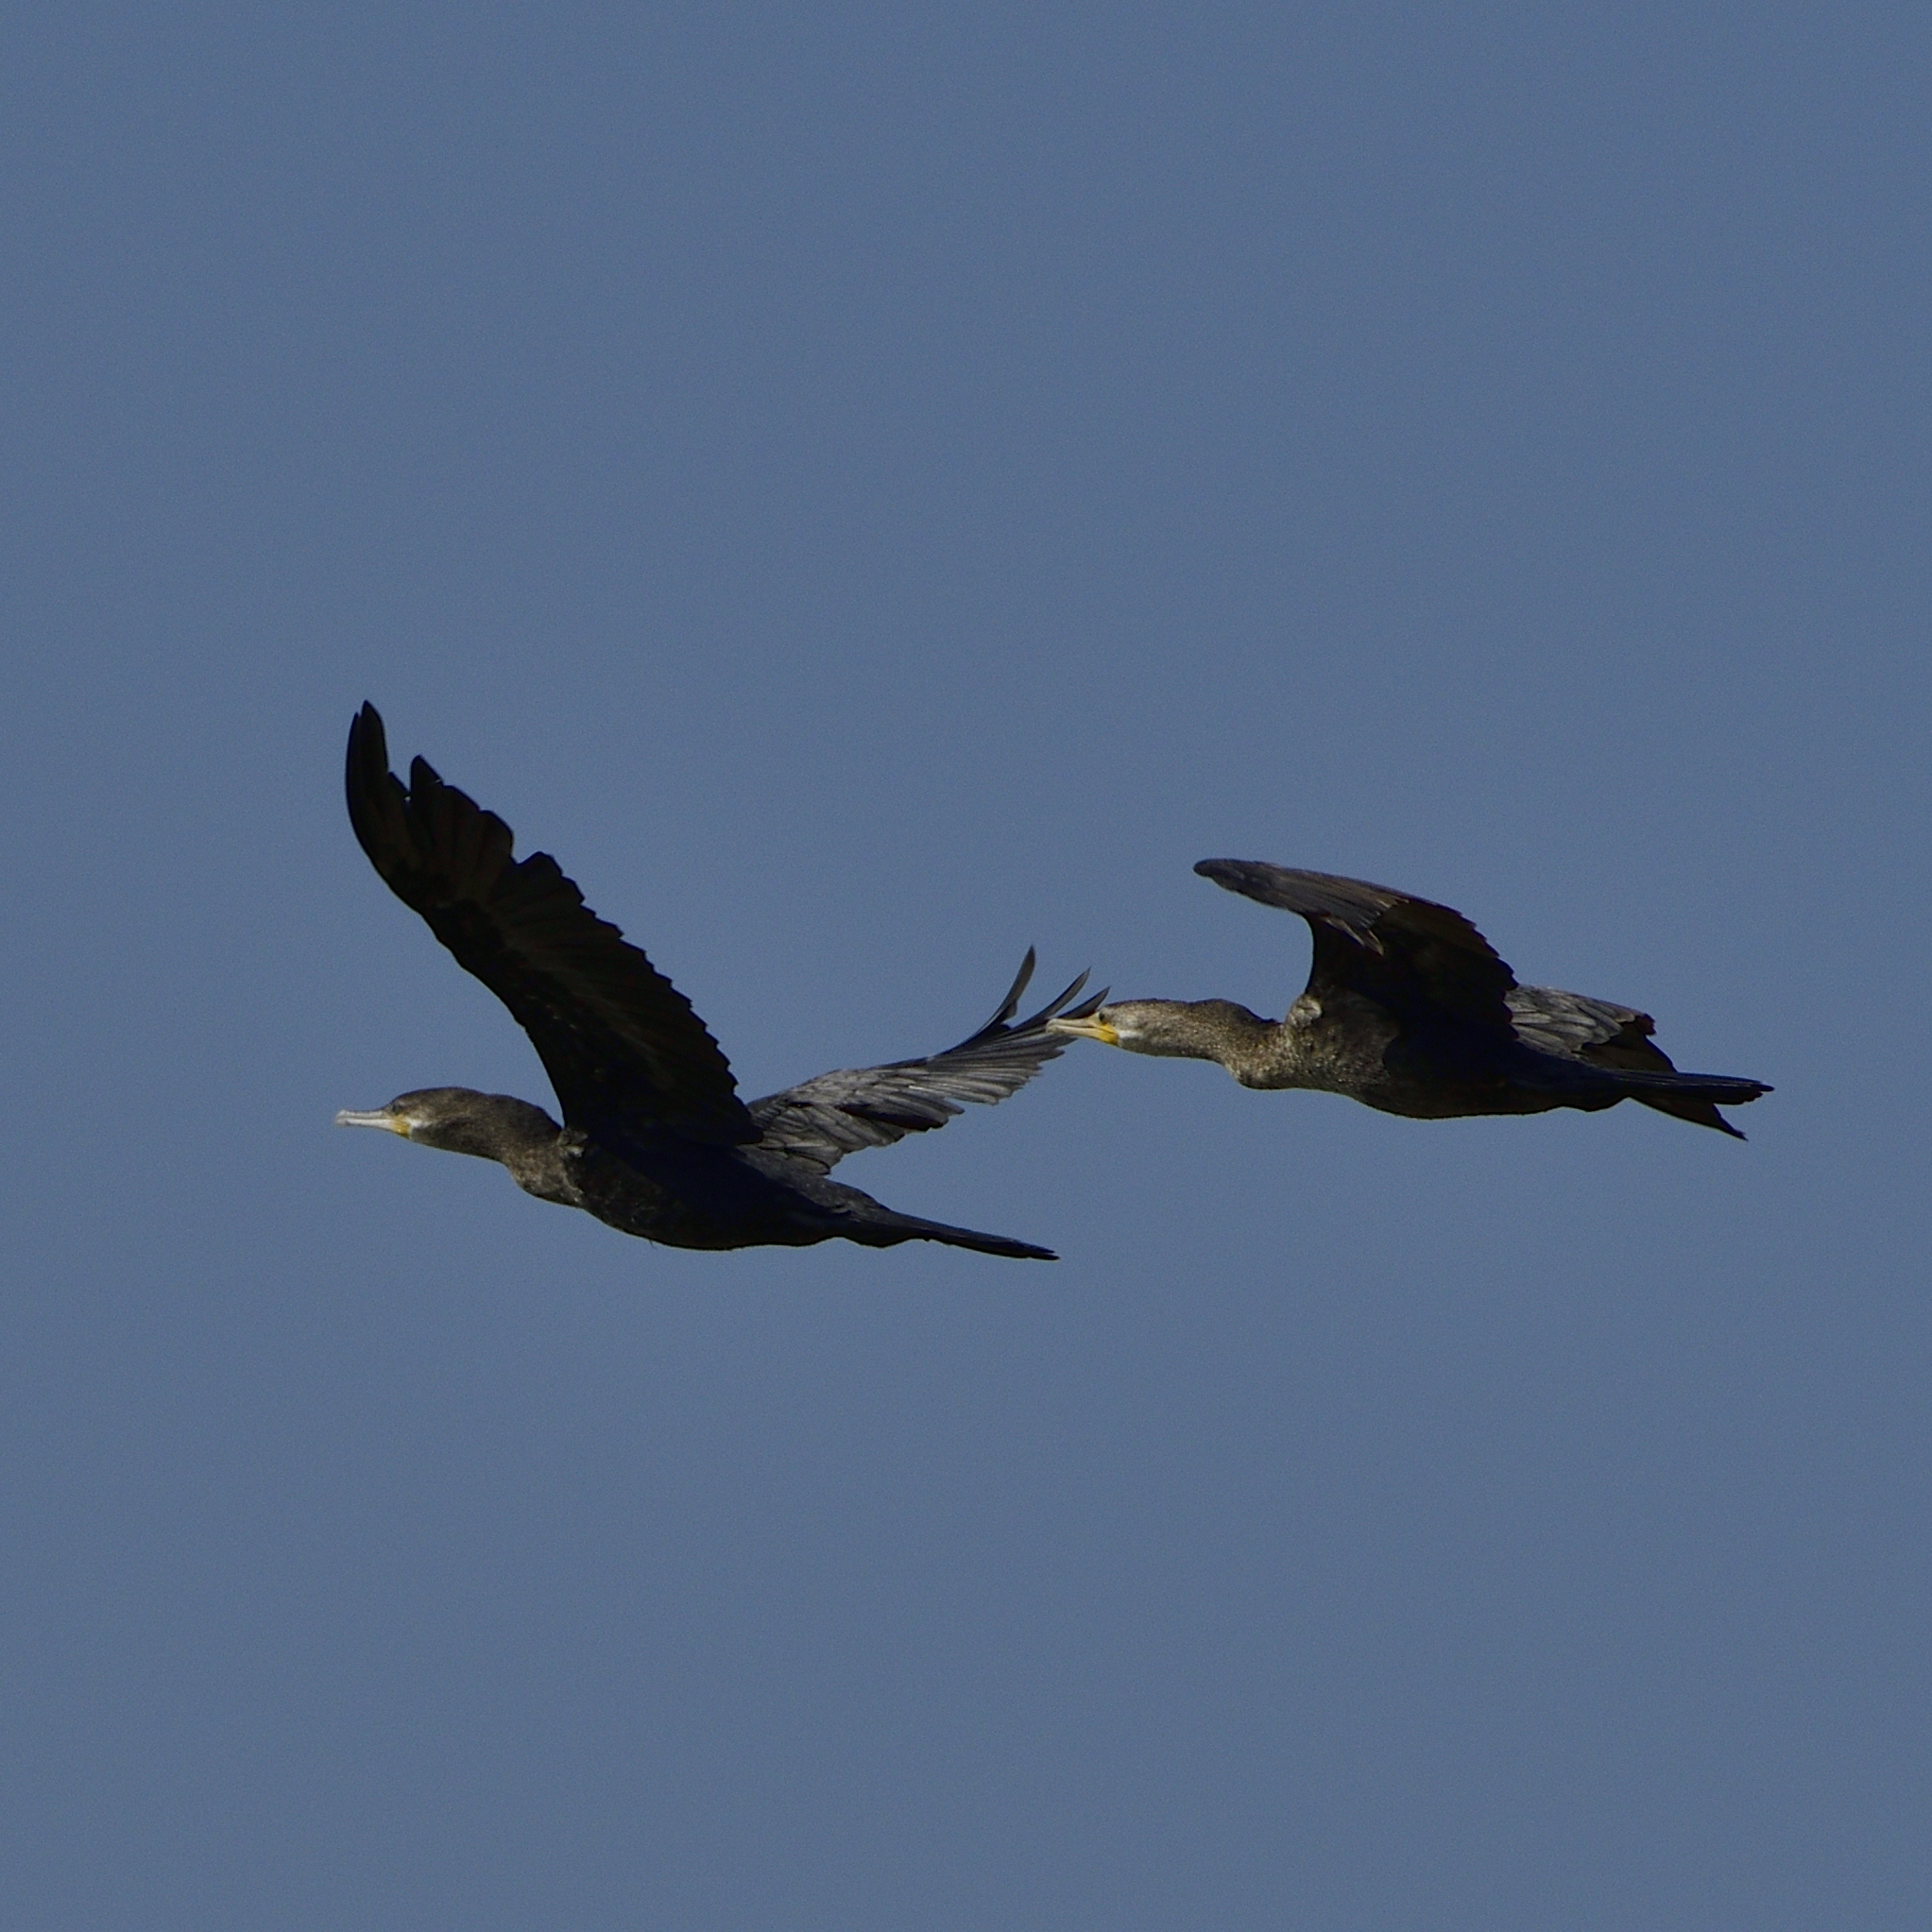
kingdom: Animalia
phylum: Chordata
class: Aves
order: Suliformes
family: Phalacrocoracidae
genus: Phalacrocorax
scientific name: Phalacrocorax brasilianus
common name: Neotropic cormorant
